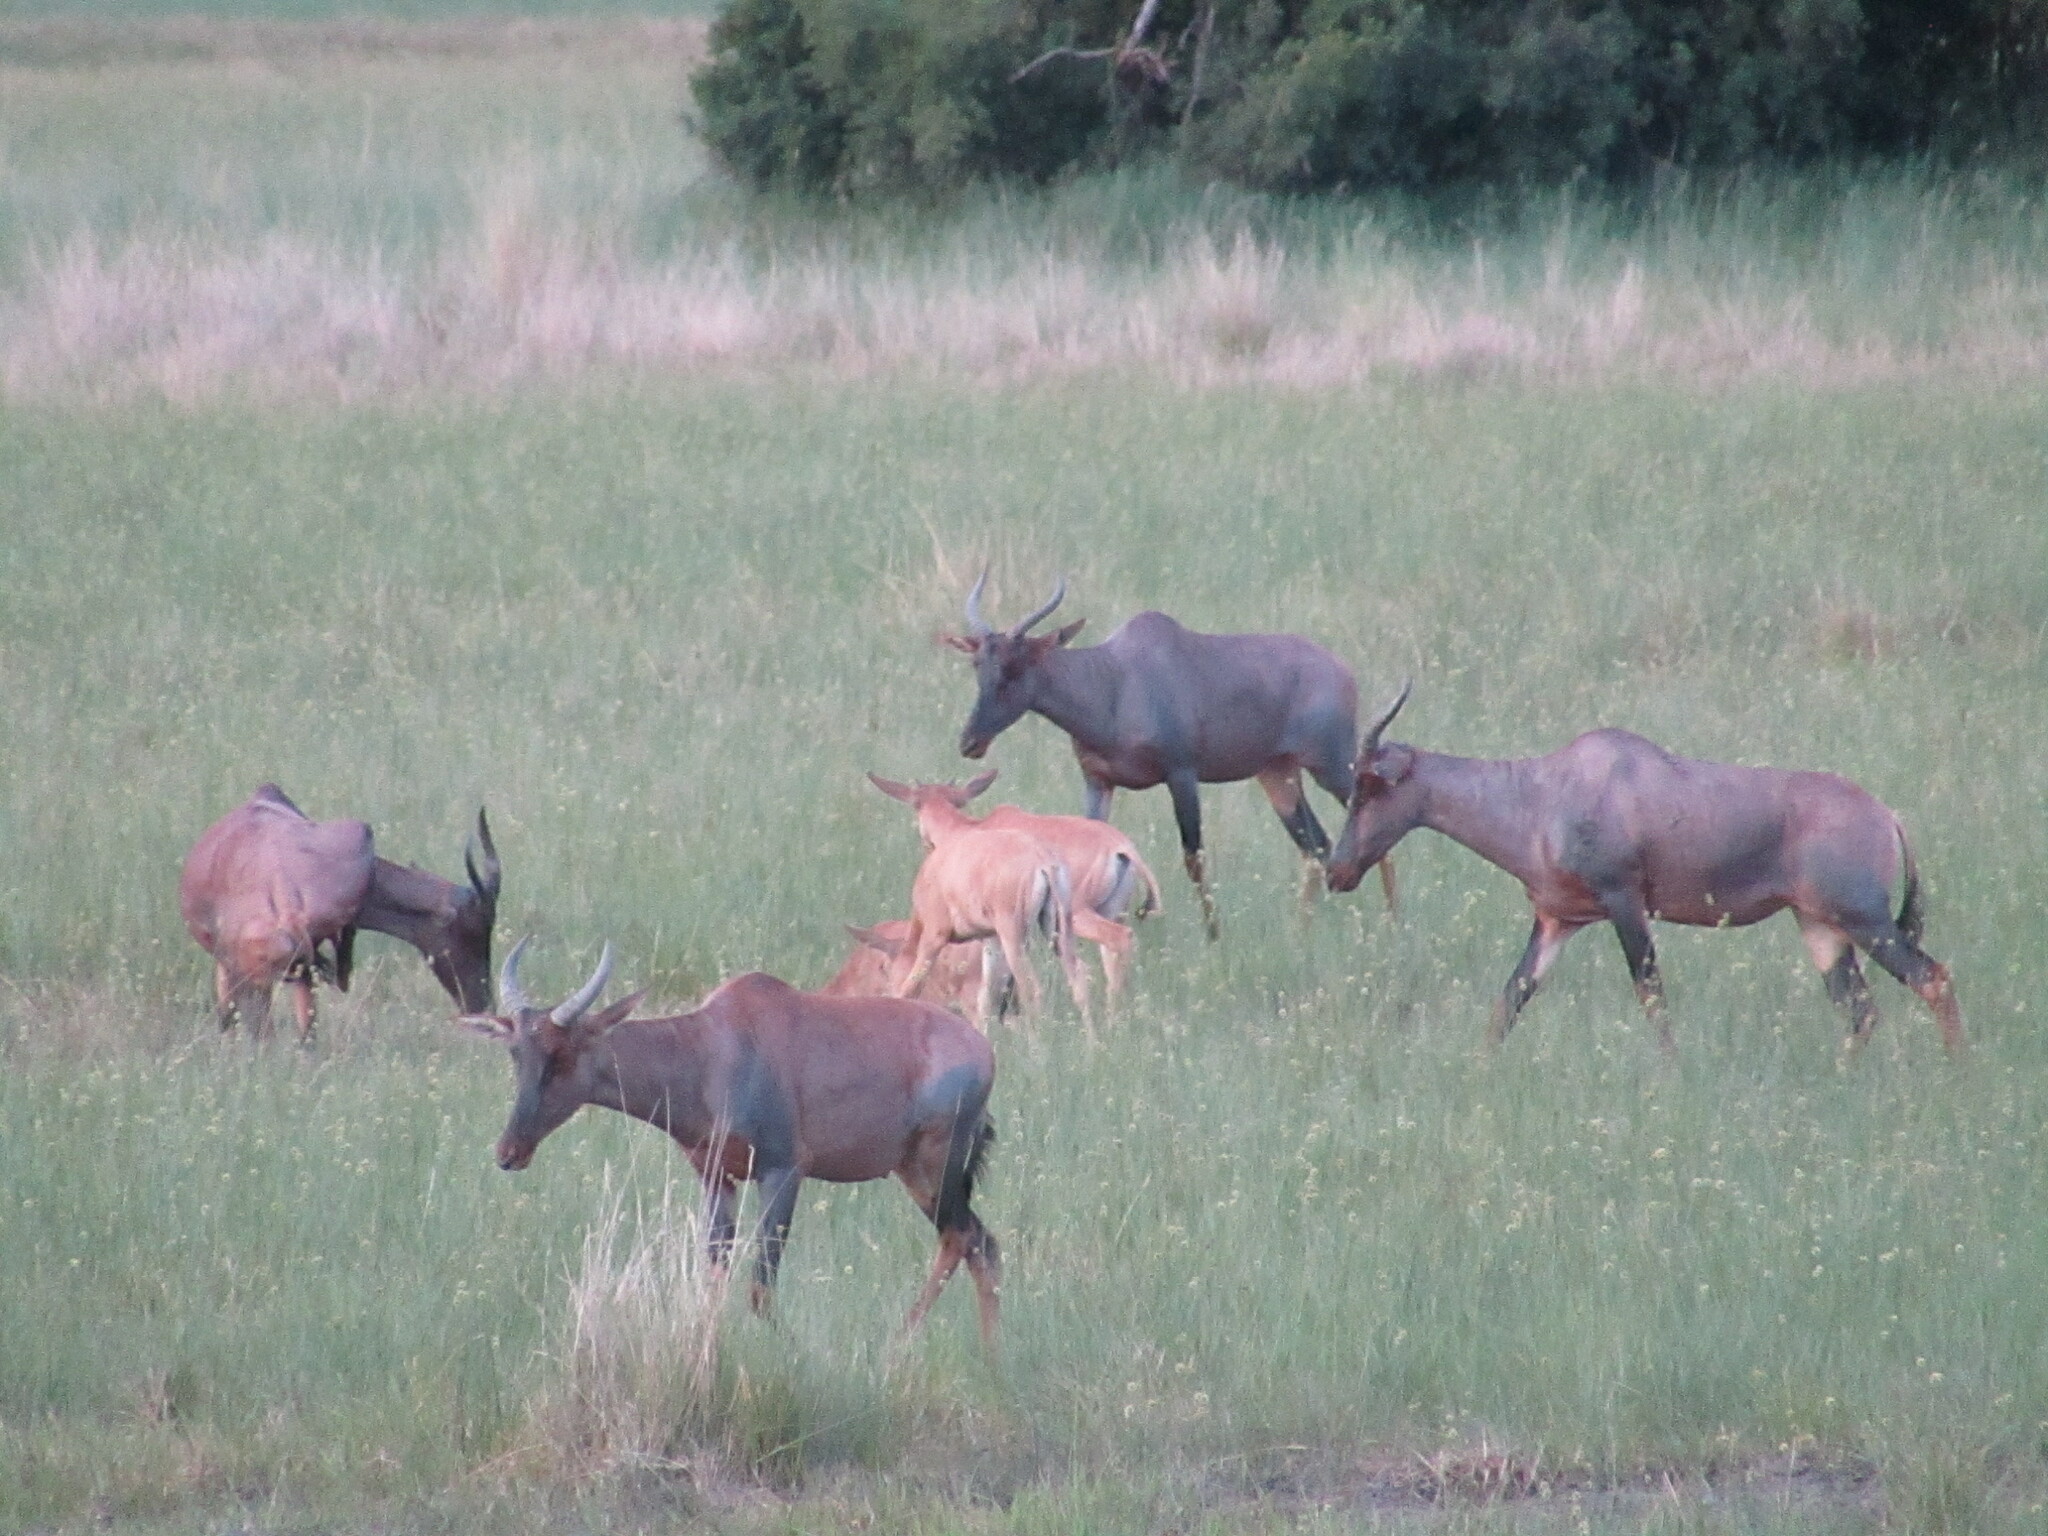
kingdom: Animalia
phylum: Chordata
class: Mammalia
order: Artiodactyla
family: Bovidae
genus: Damaliscus
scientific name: Damaliscus lunatus
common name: Common tsessebe
